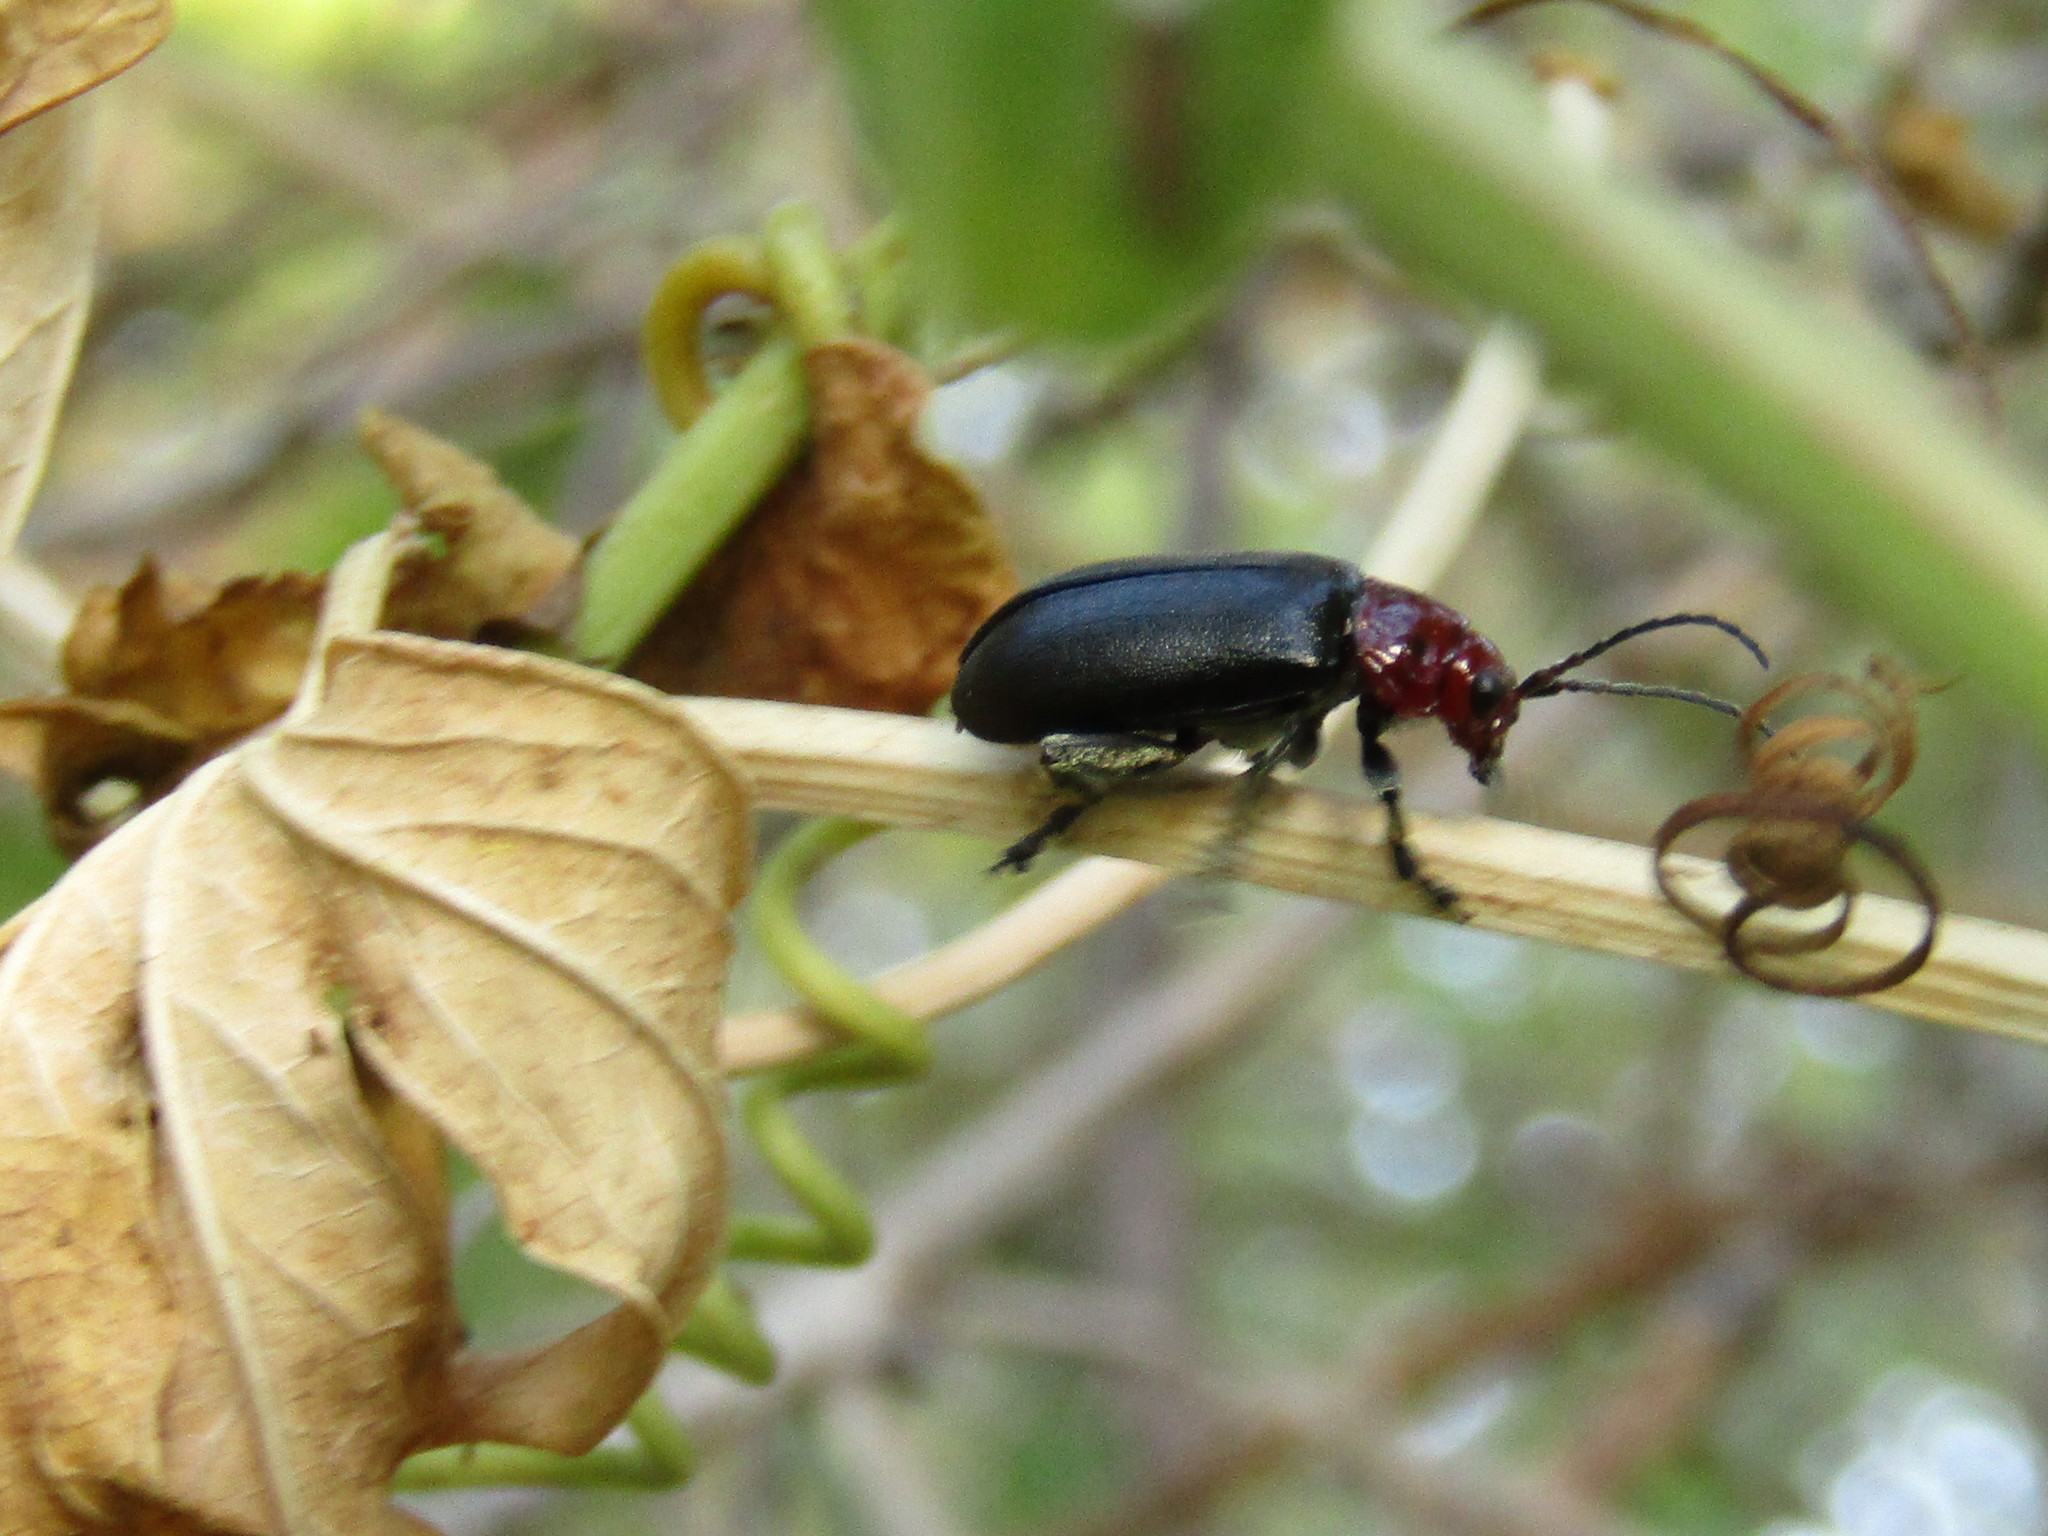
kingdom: Animalia
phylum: Arthropoda
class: Insecta
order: Coleoptera
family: Chrysomelidae
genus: Cacoscelis
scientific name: Cacoscelis
